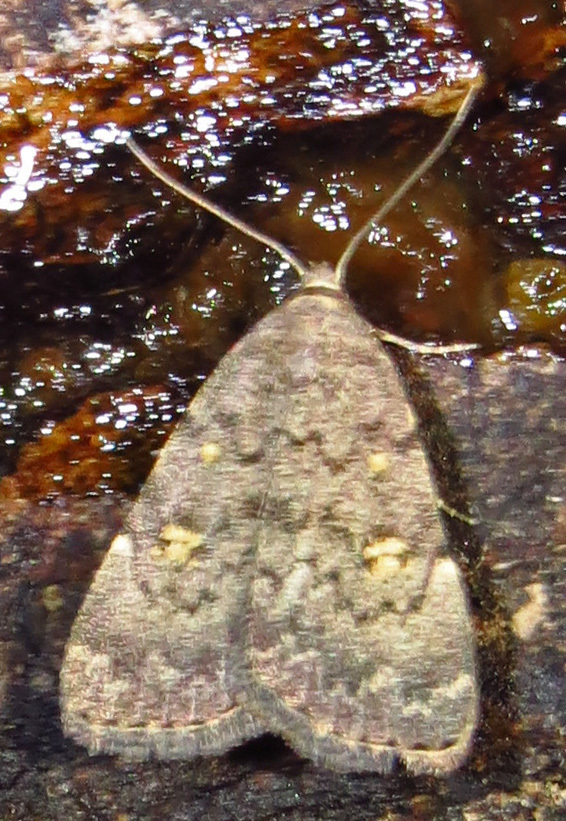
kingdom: Animalia
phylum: Arthropoda
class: Insecta
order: Lepidoptera
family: Erebidae
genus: Idia
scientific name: Idia aemula
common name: Common idia moth
